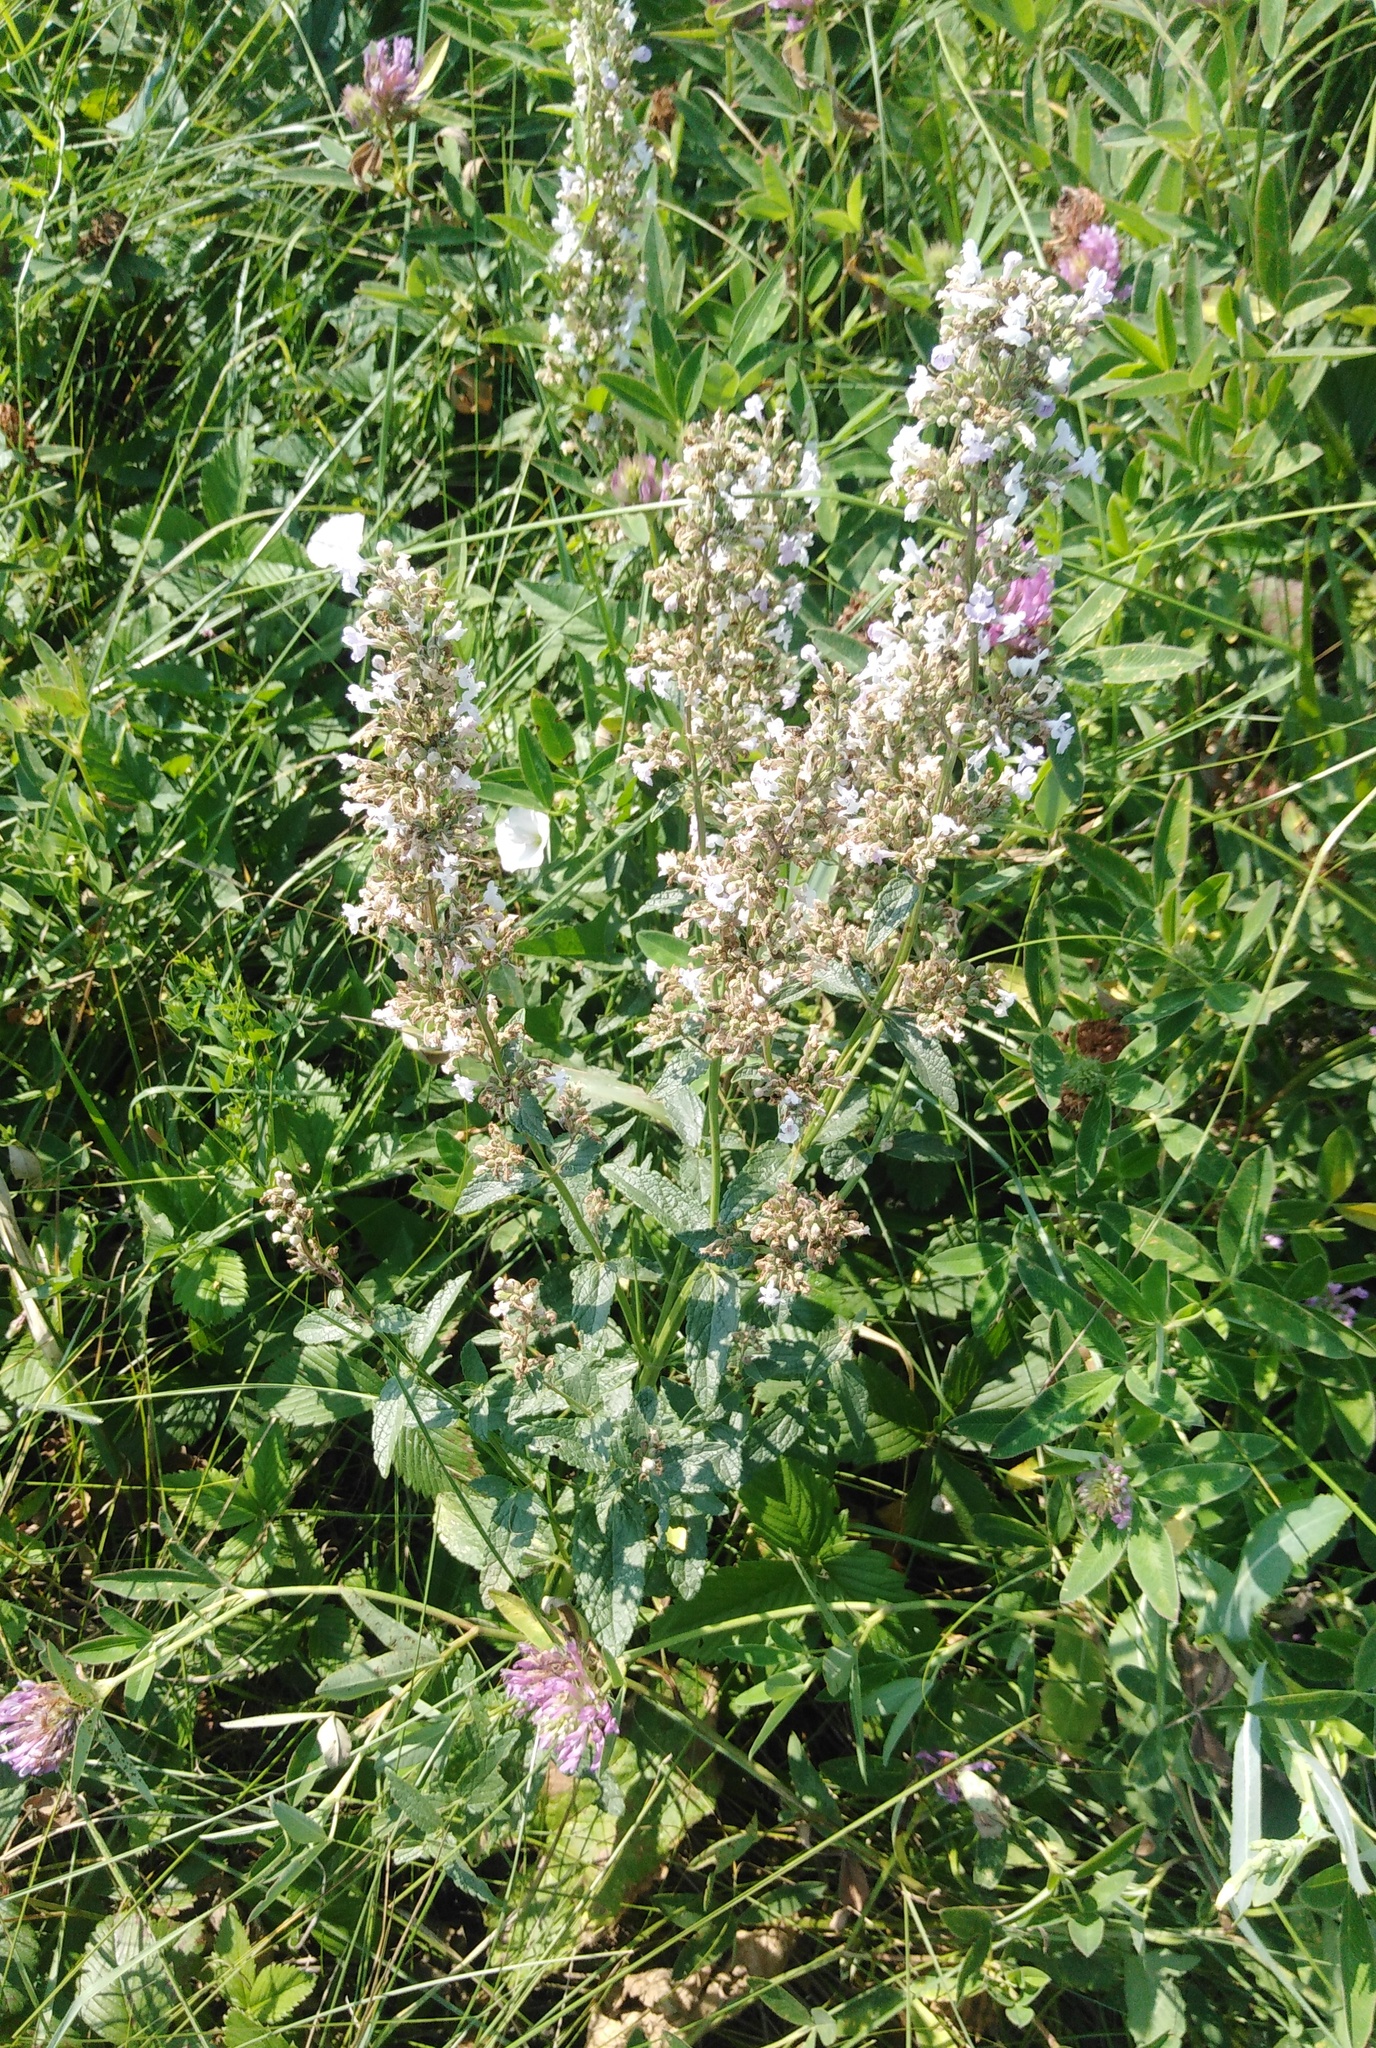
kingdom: Plantae
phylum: Tracheophyta
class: Magnoliopsida
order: Lamiales
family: Lamiaceae
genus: Nepeta
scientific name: Nepeta nuda
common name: Hairless catmint
